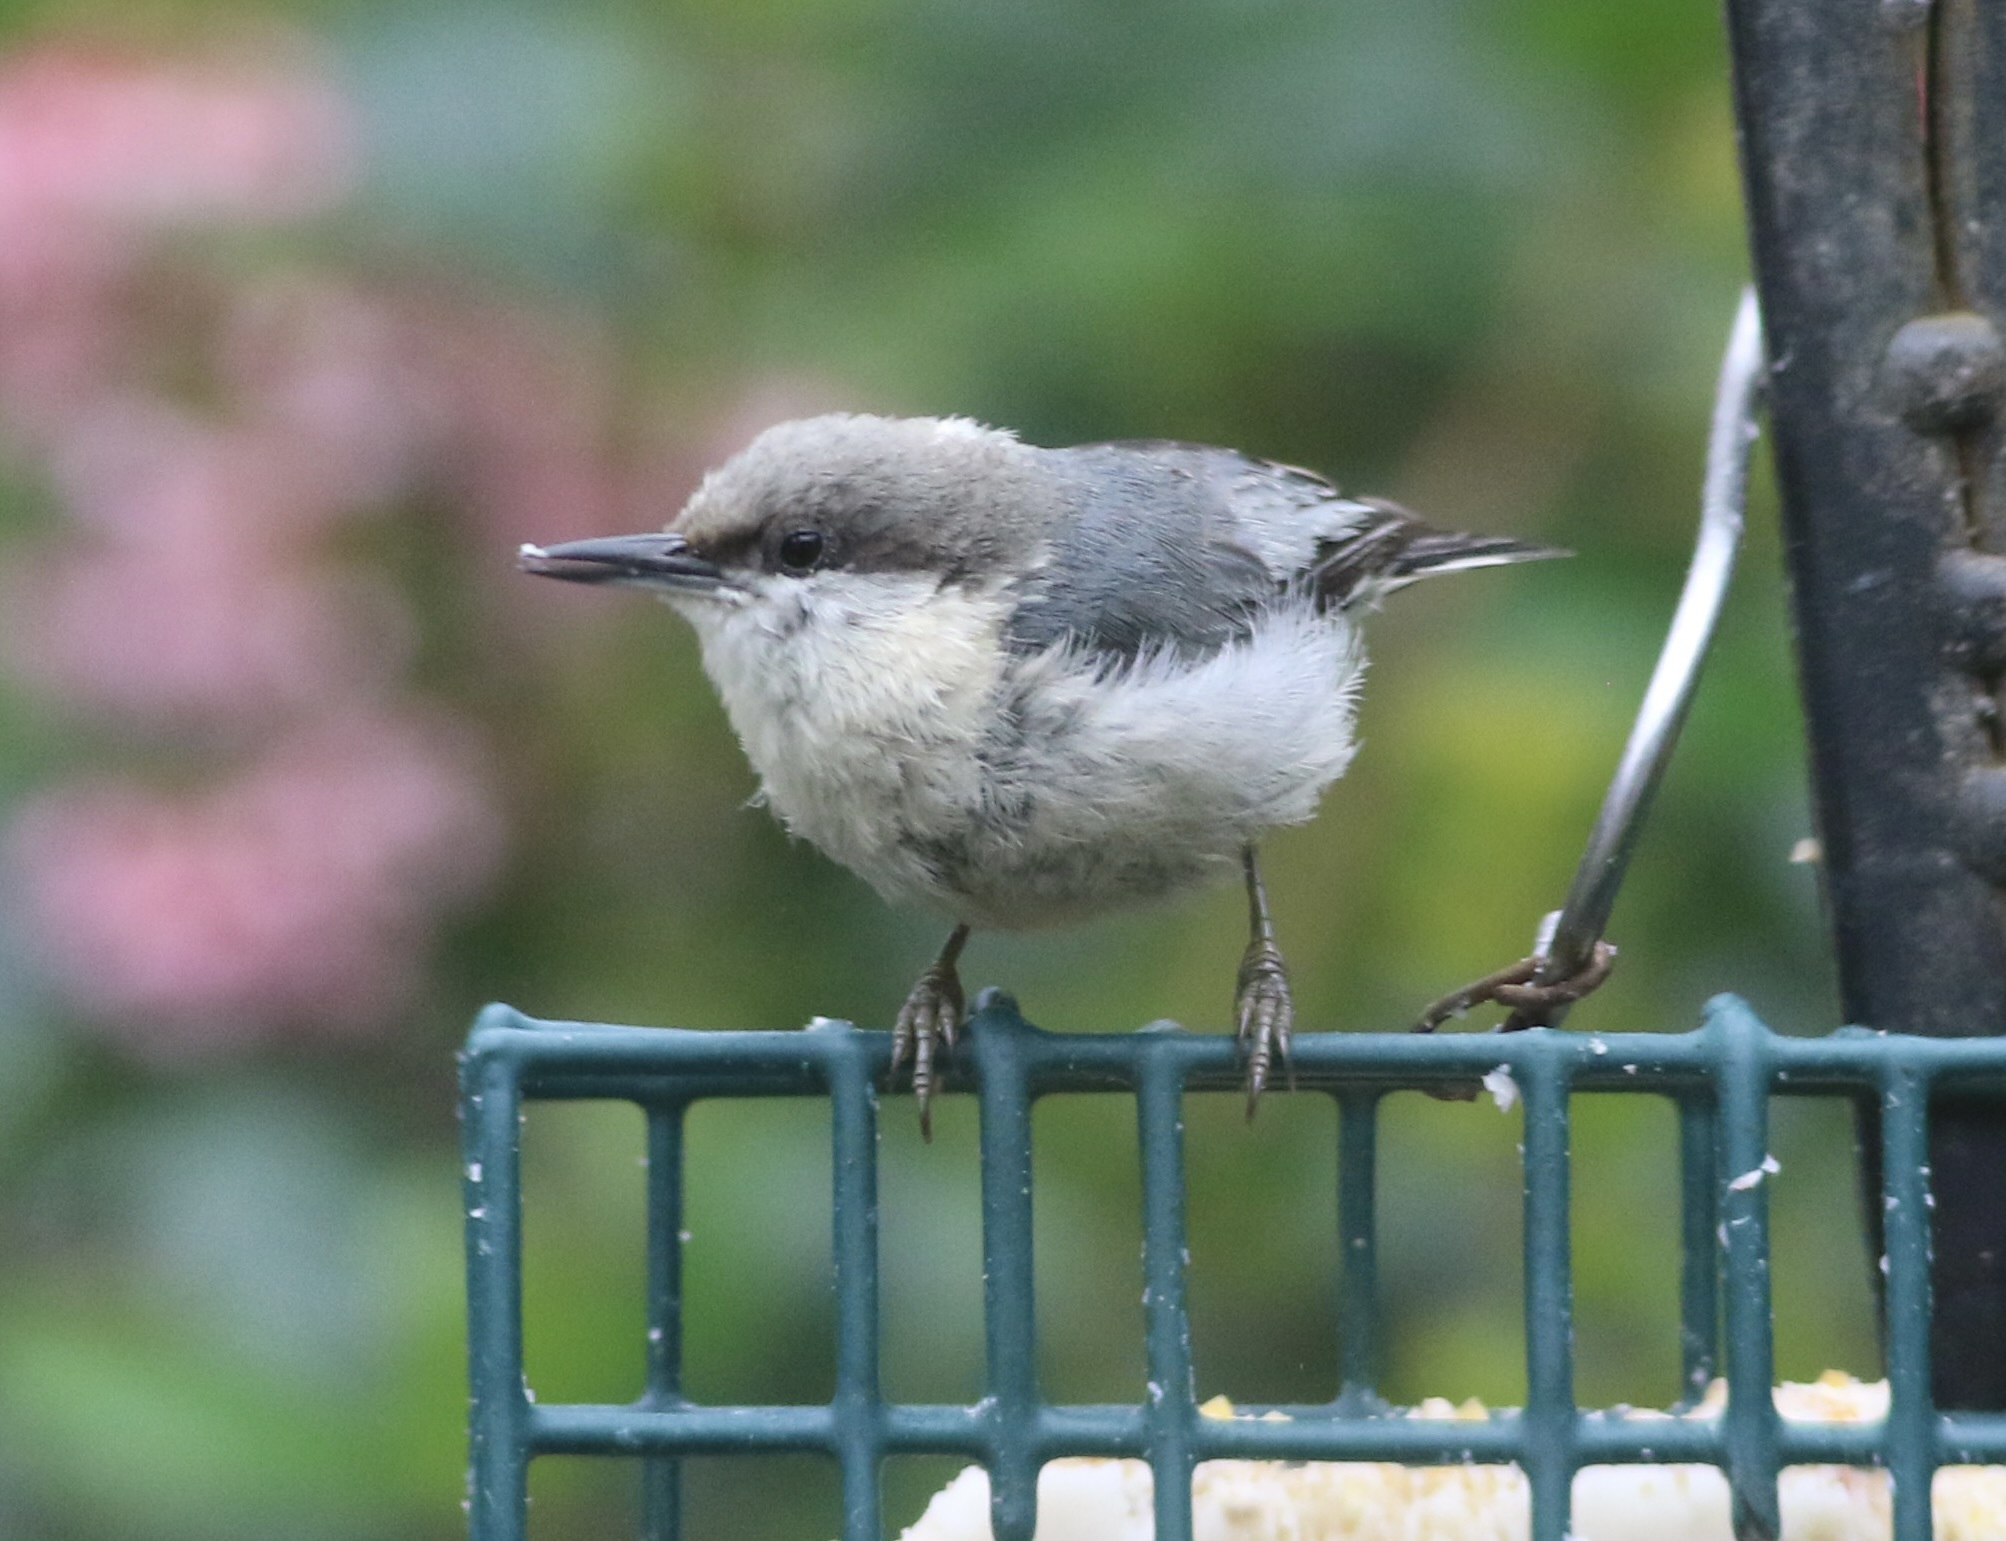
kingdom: Animalia
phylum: Chordata
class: Aves
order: Passeriformes
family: Sittidae
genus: Sitta
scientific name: Sitta pygmaea
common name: Pygmy nuthatch
